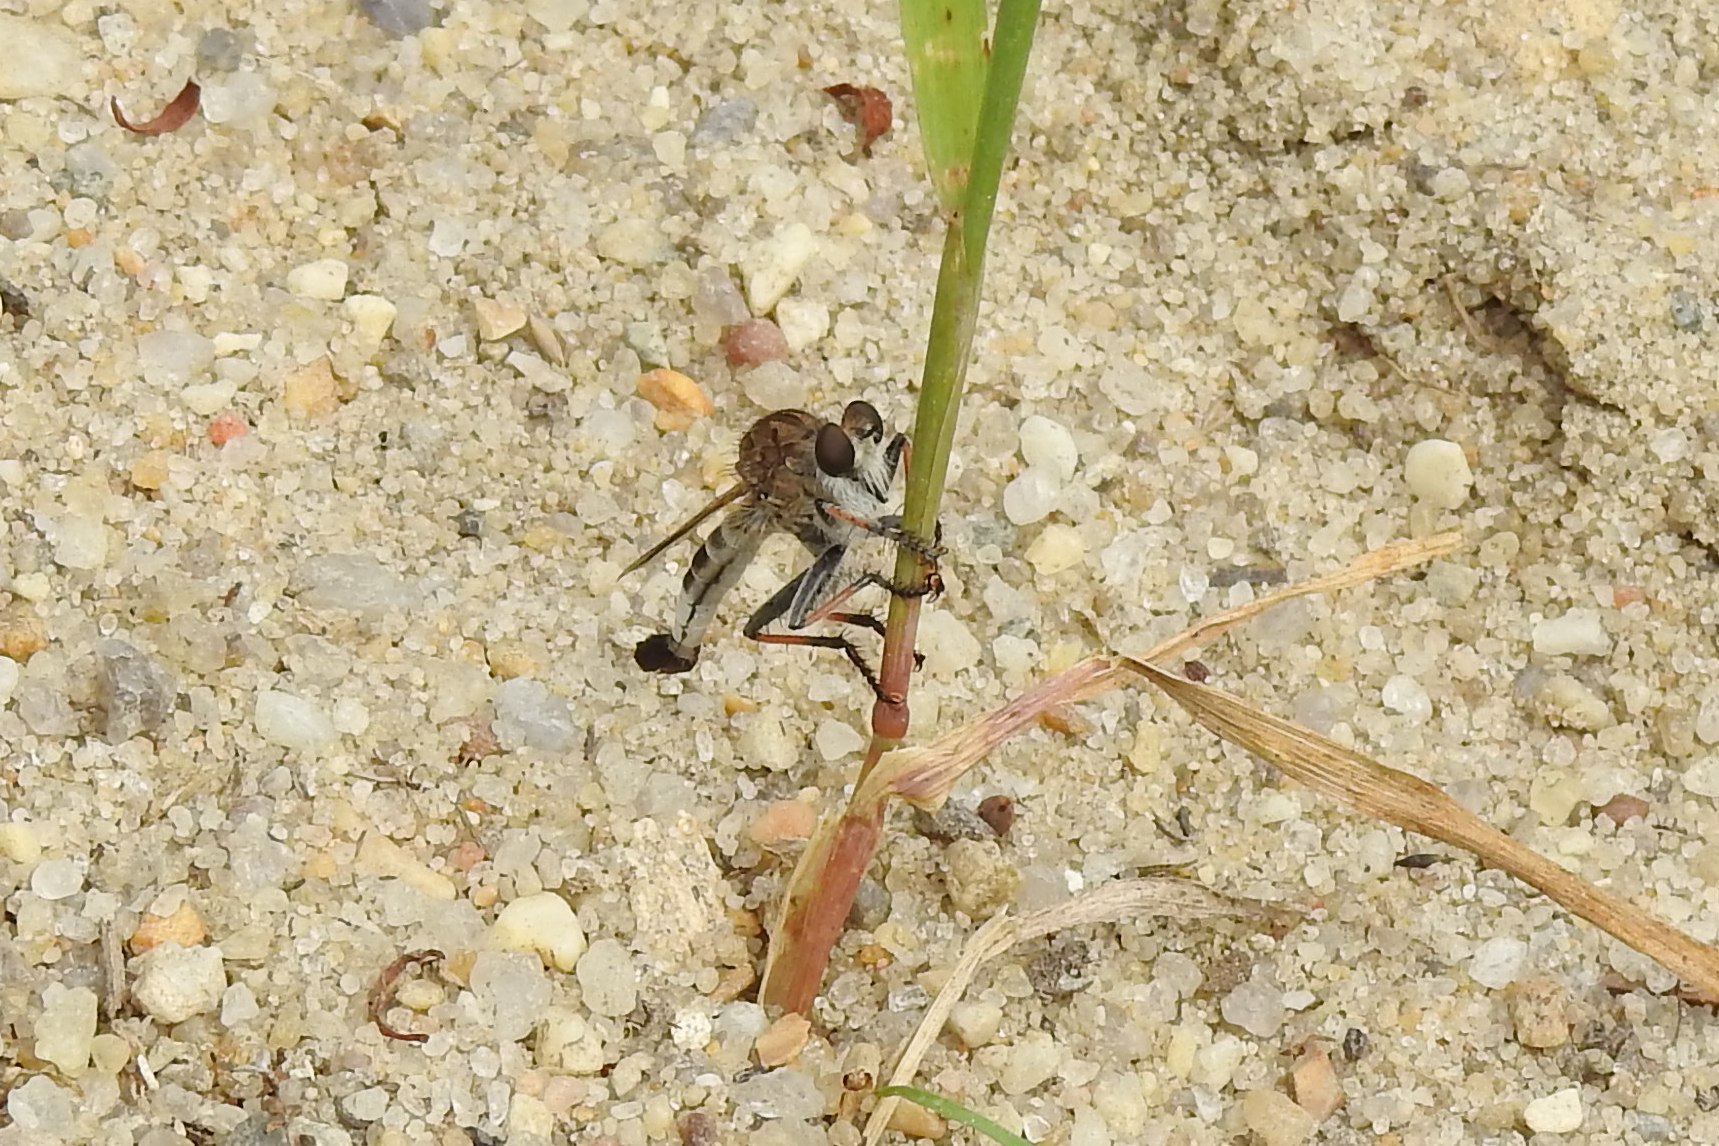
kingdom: Animalia
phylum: Arthropoda
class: Insecta
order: Diptera
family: Asilidae
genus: Efferia
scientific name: Efferia albibarbis
